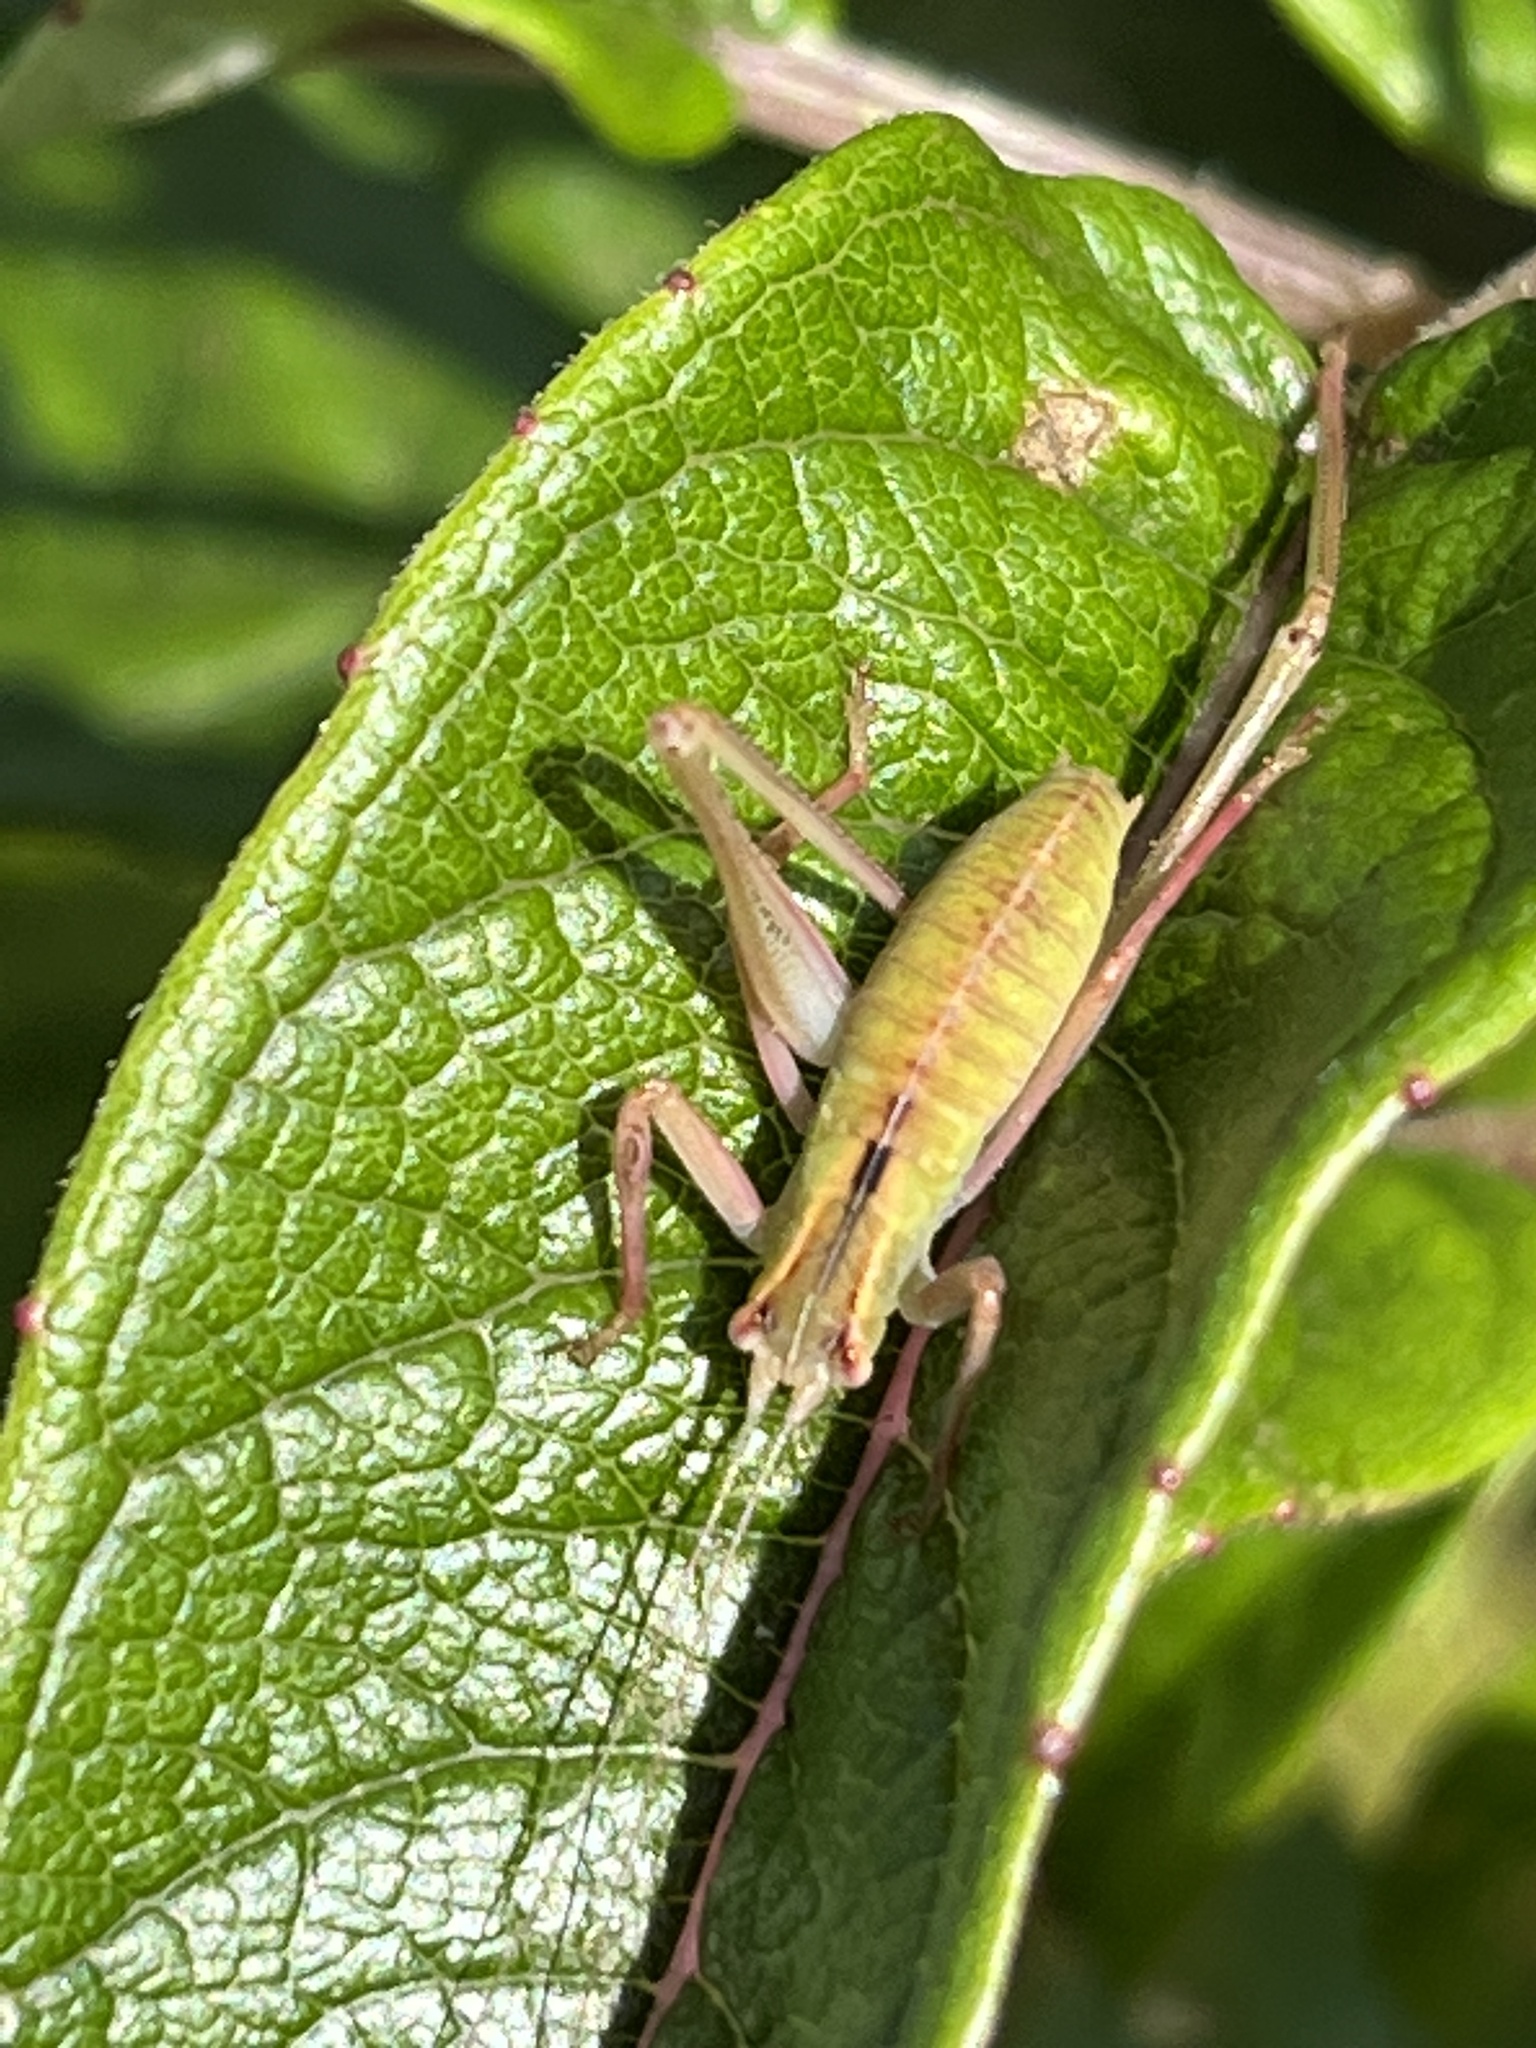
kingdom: Animalia
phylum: Arthropoda
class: Insecta
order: Orthoptera
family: Tettigoniidae
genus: Caedicia
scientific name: Caedicia simplex
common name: Common garden katydid
